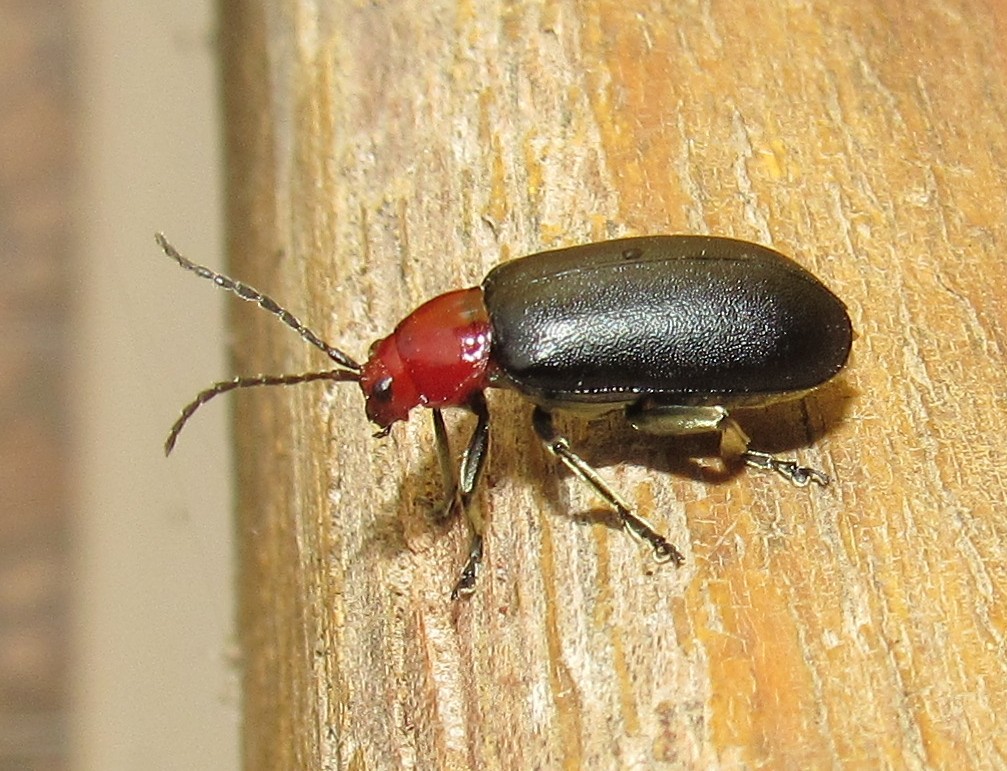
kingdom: Animalia
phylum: Arthropoda
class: Insecta
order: Coleoptera
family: Chrysomelidae
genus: Cacoscelis
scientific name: Cacoscelis
